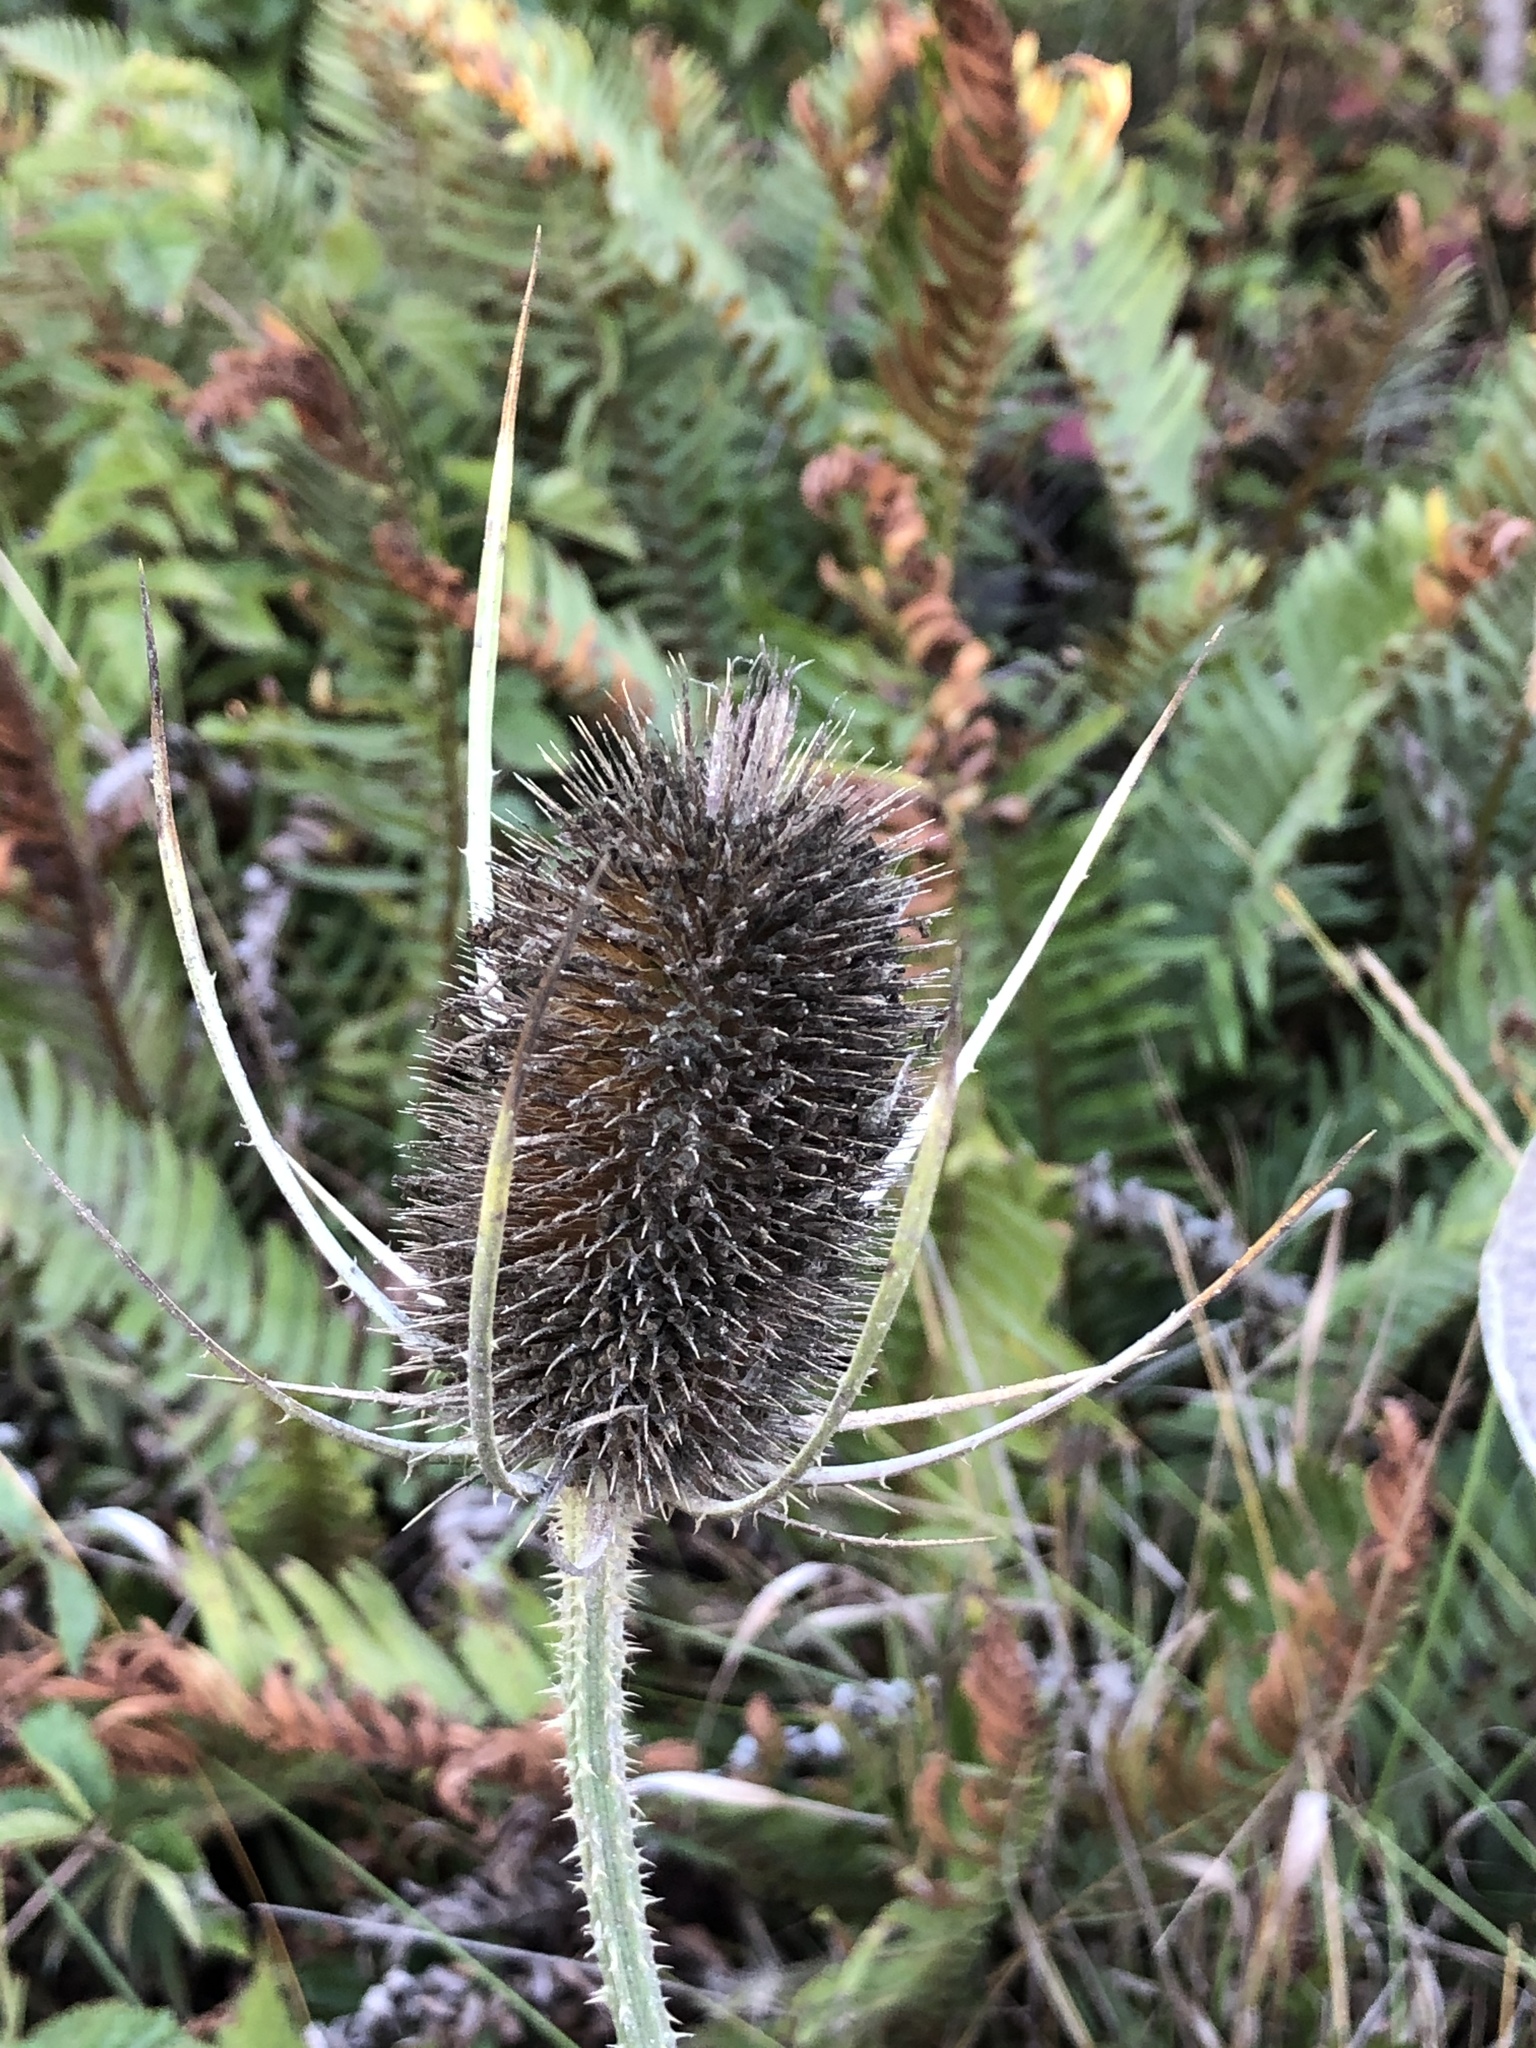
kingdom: Plantae
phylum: Tracheophyta
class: Magnoliopsida
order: Dipsacales
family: Caprifoliaceae
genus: Dipsacus
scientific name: Dipsacus fullonum
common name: Teasel
